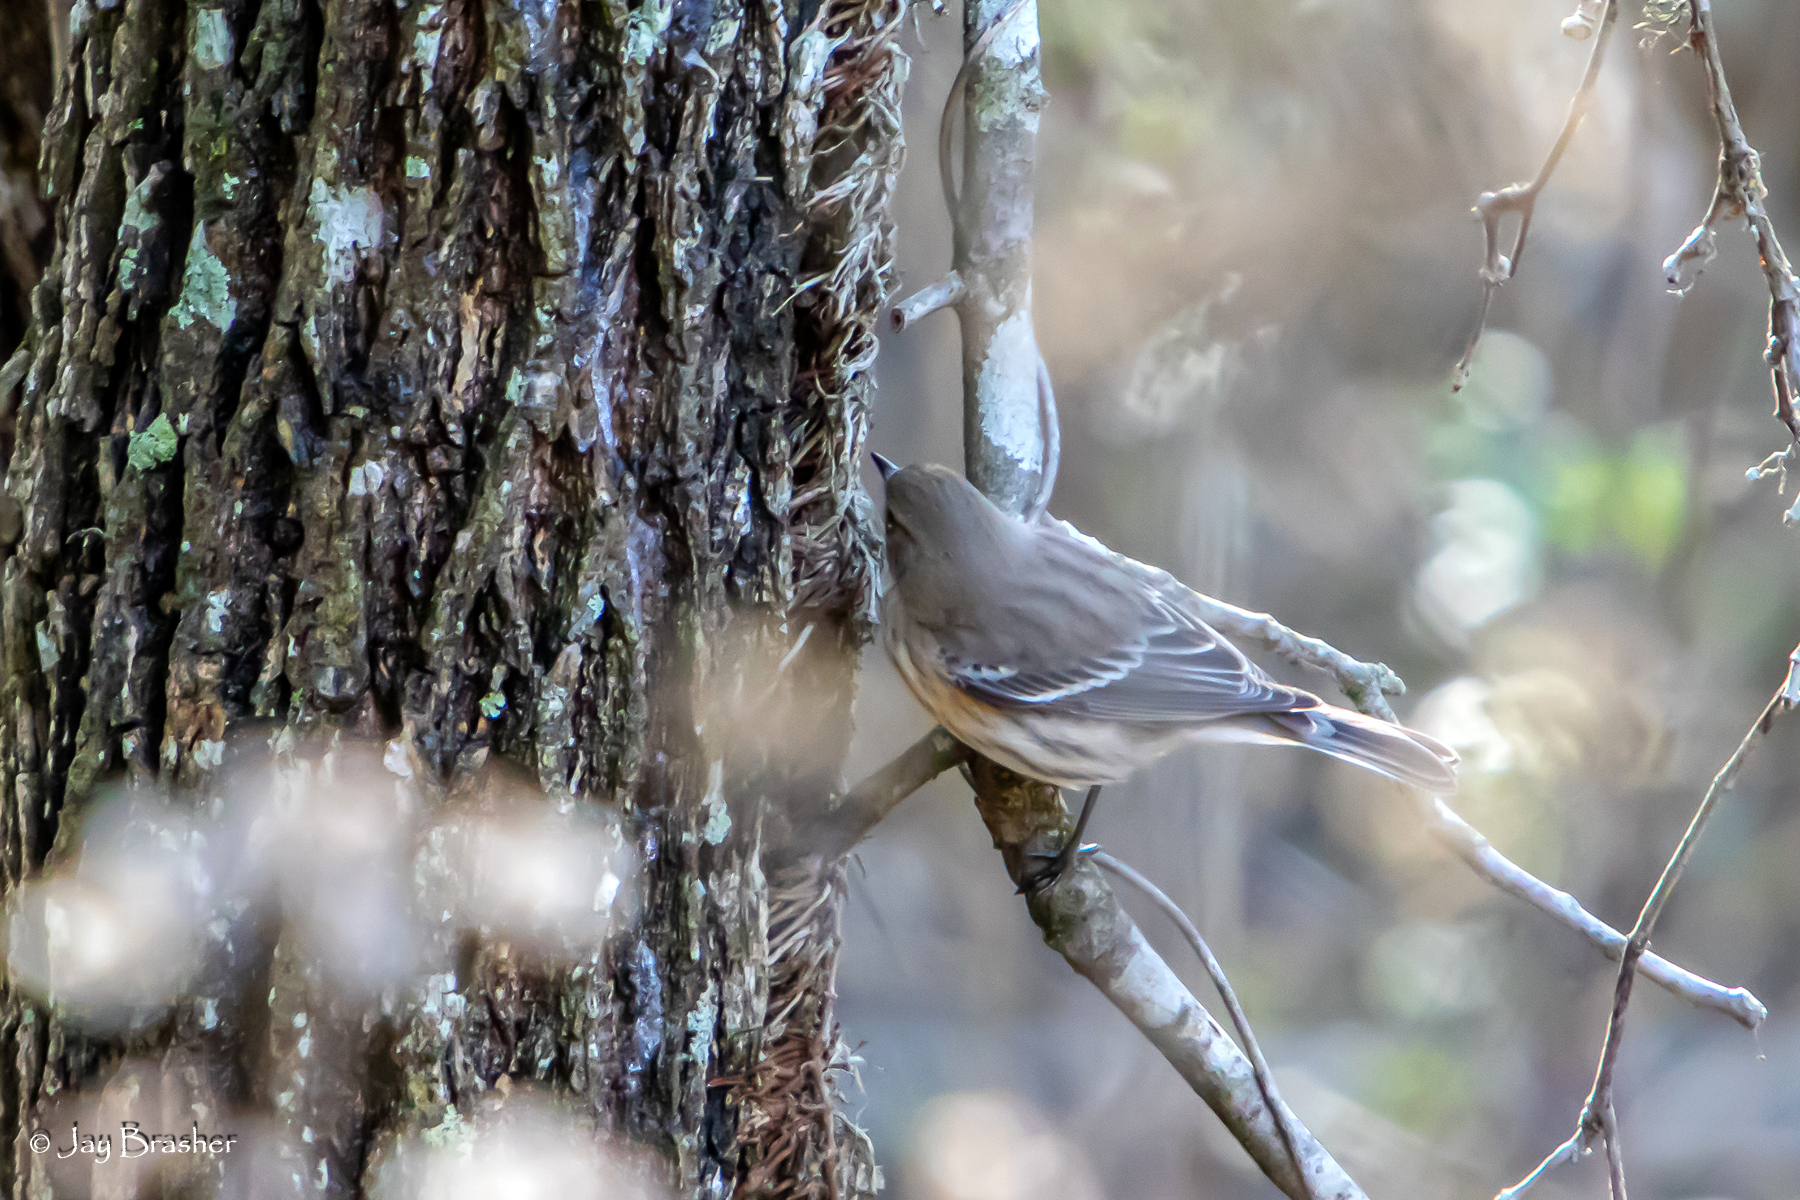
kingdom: Animalia
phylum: Chordata
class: Aves
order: Passeriformes
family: Parulidae
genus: Setophaga
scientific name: Setophaga coronata
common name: Myrtle warbler
